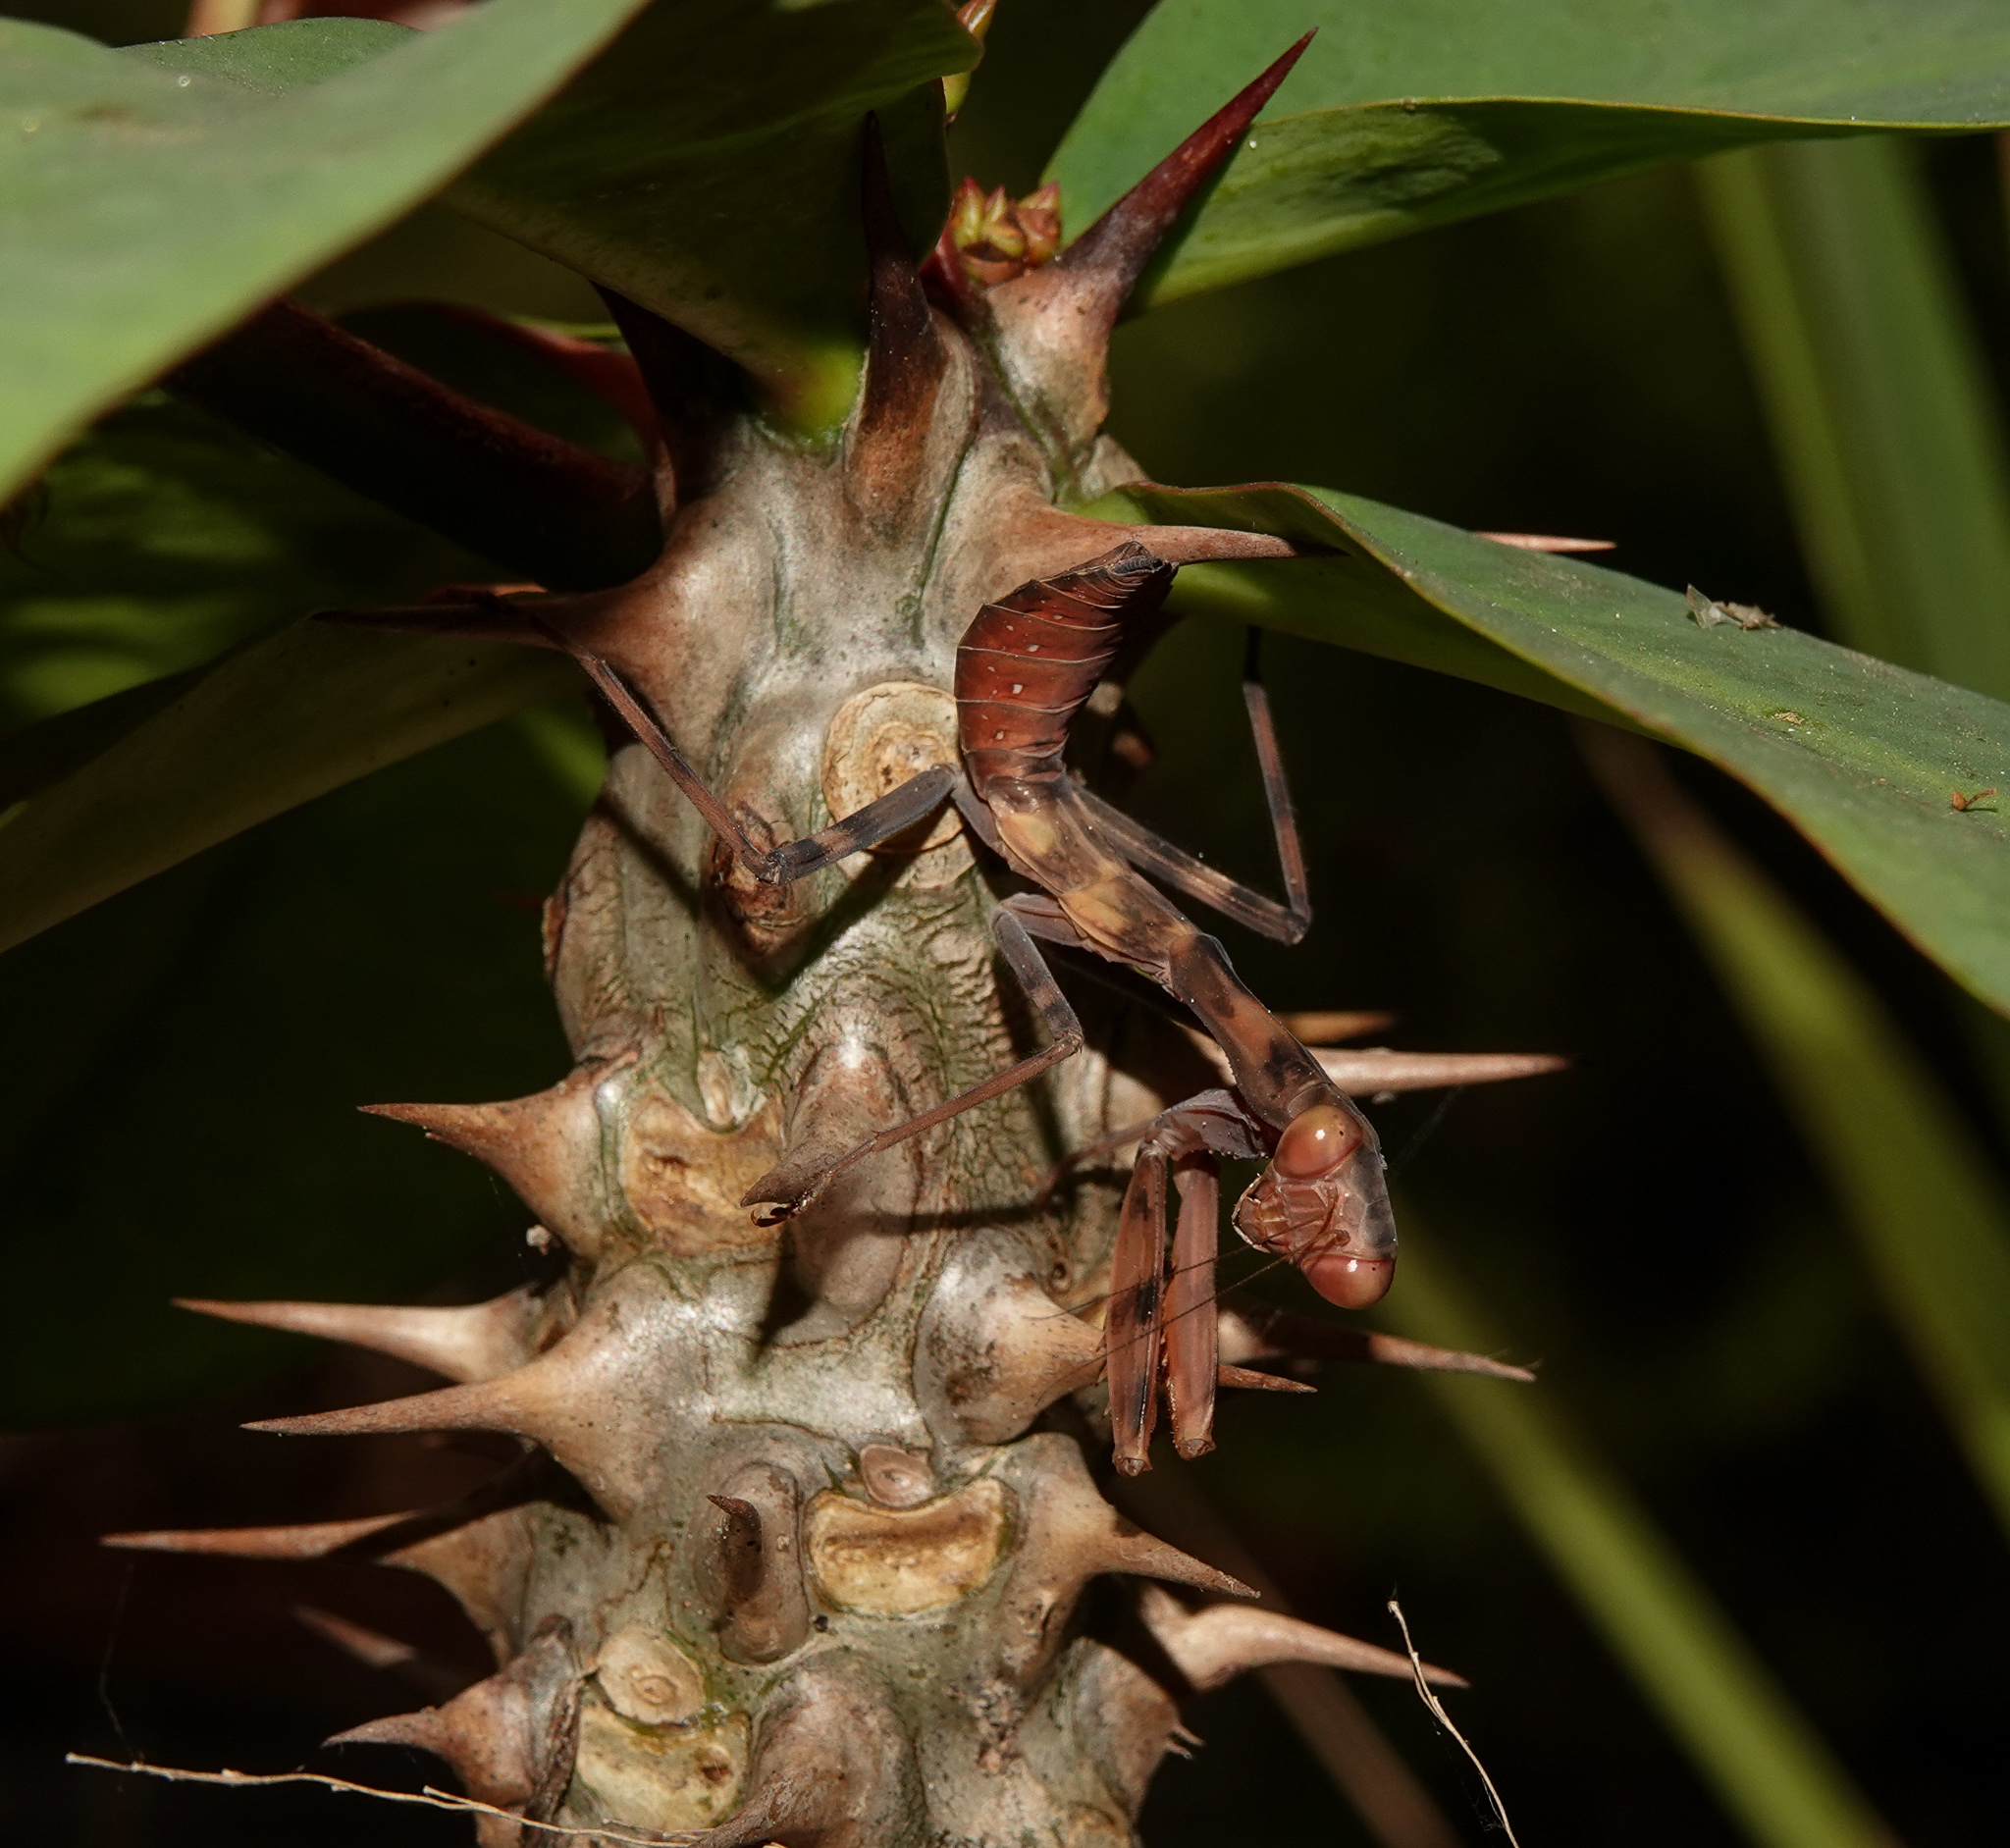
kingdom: Animalia
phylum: Arthropoda
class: Insecta
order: Mantodea
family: Mantidae
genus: Hierodula
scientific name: Hierodula tenuidentata
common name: Giant asian mantis
